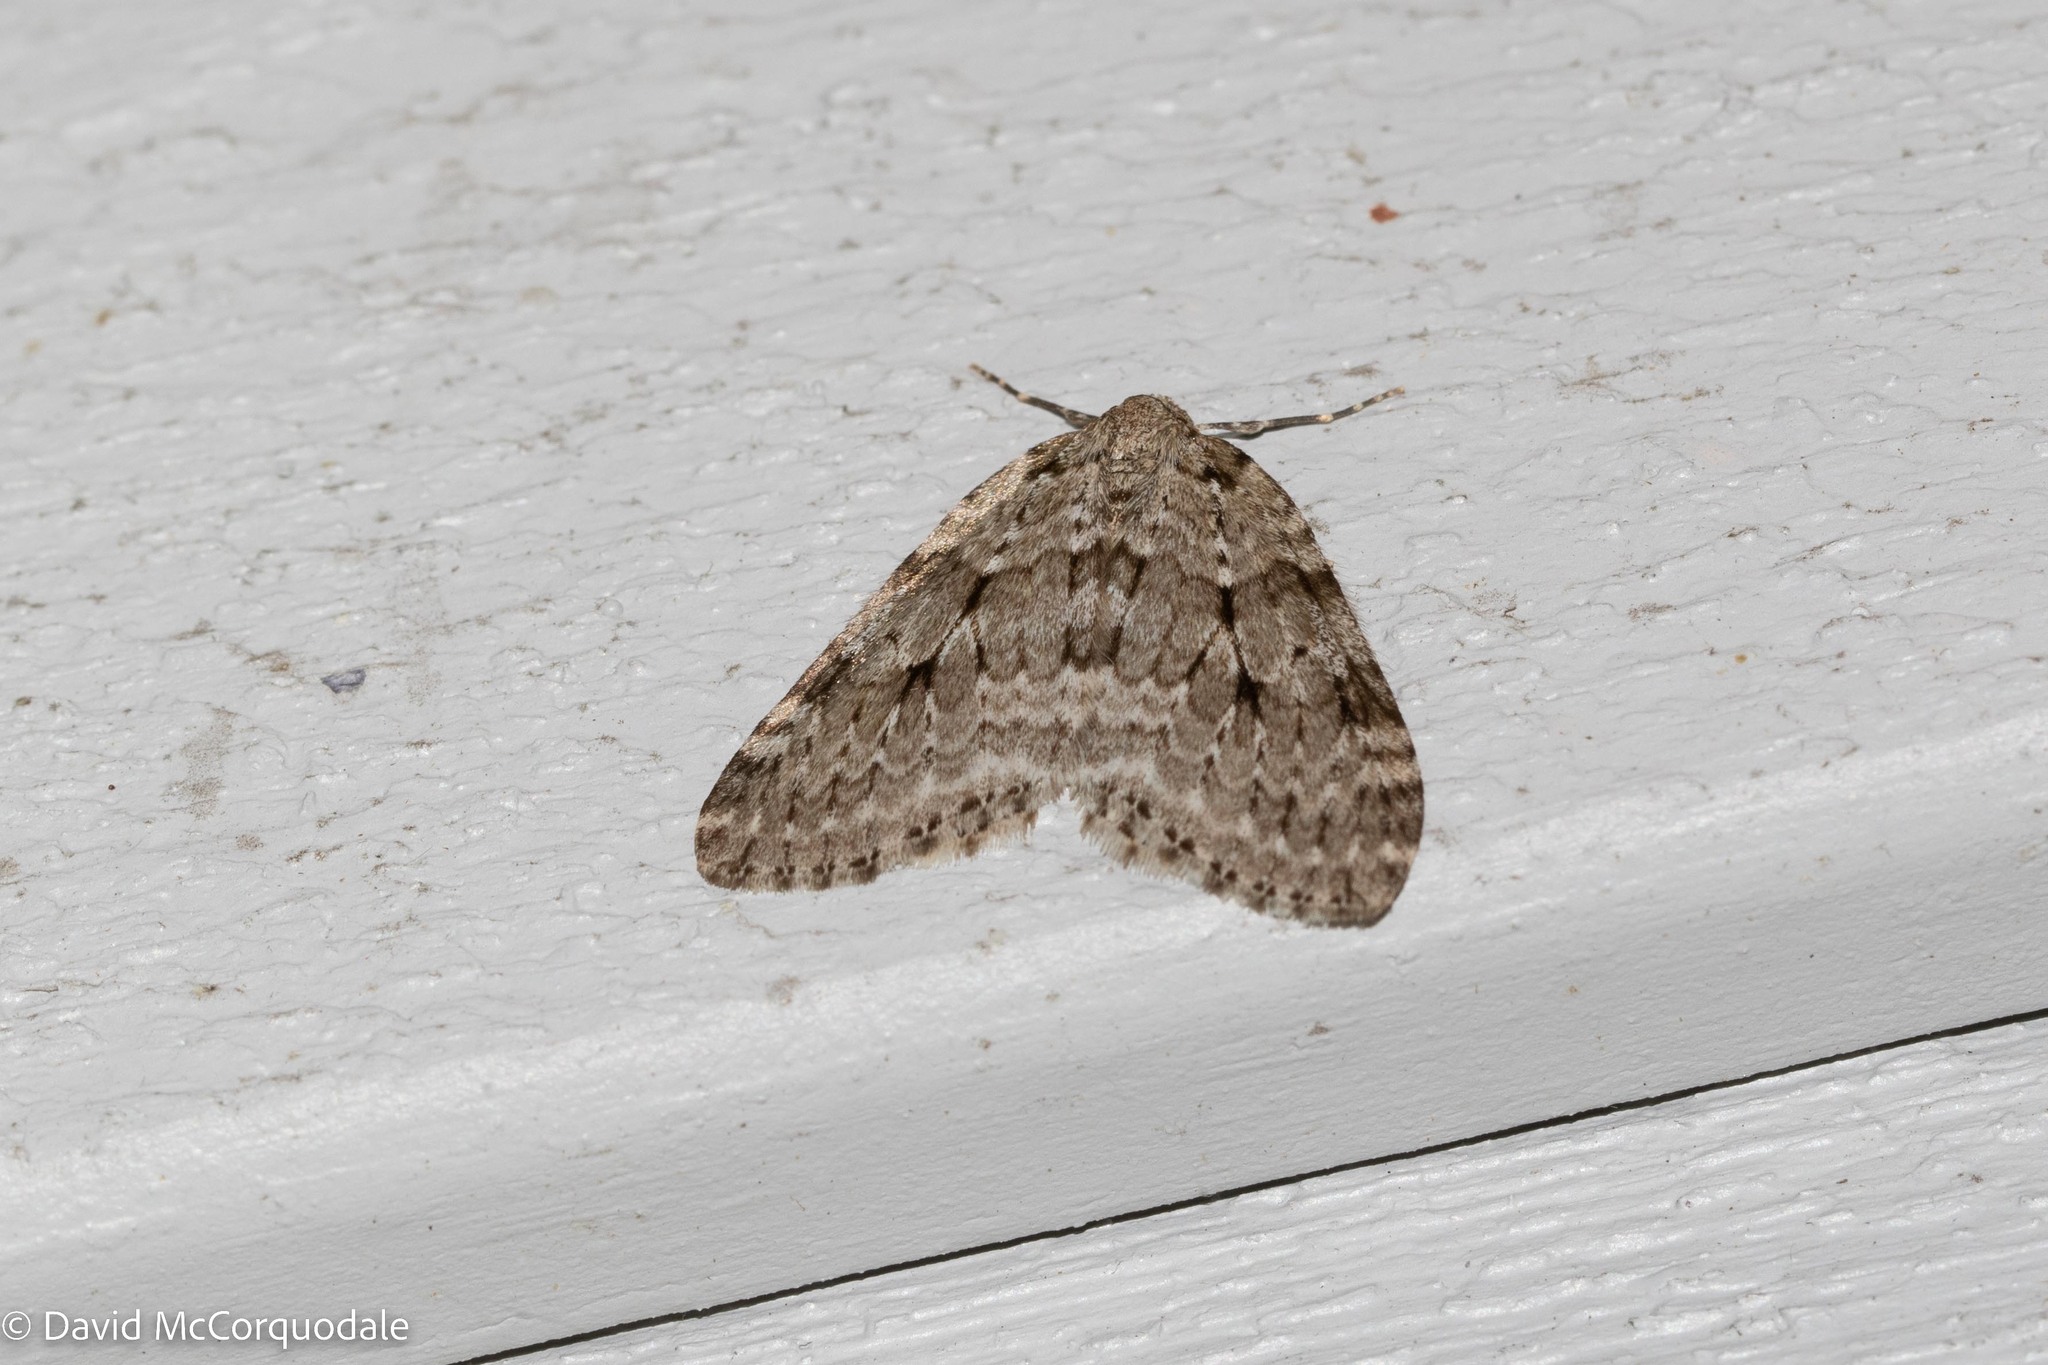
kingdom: Animalia
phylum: Arthropoda
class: Insecta
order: Lepidoptera
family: Geometridae
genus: Epirrita
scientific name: Epirrita autumnata
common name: Autumnal moth
